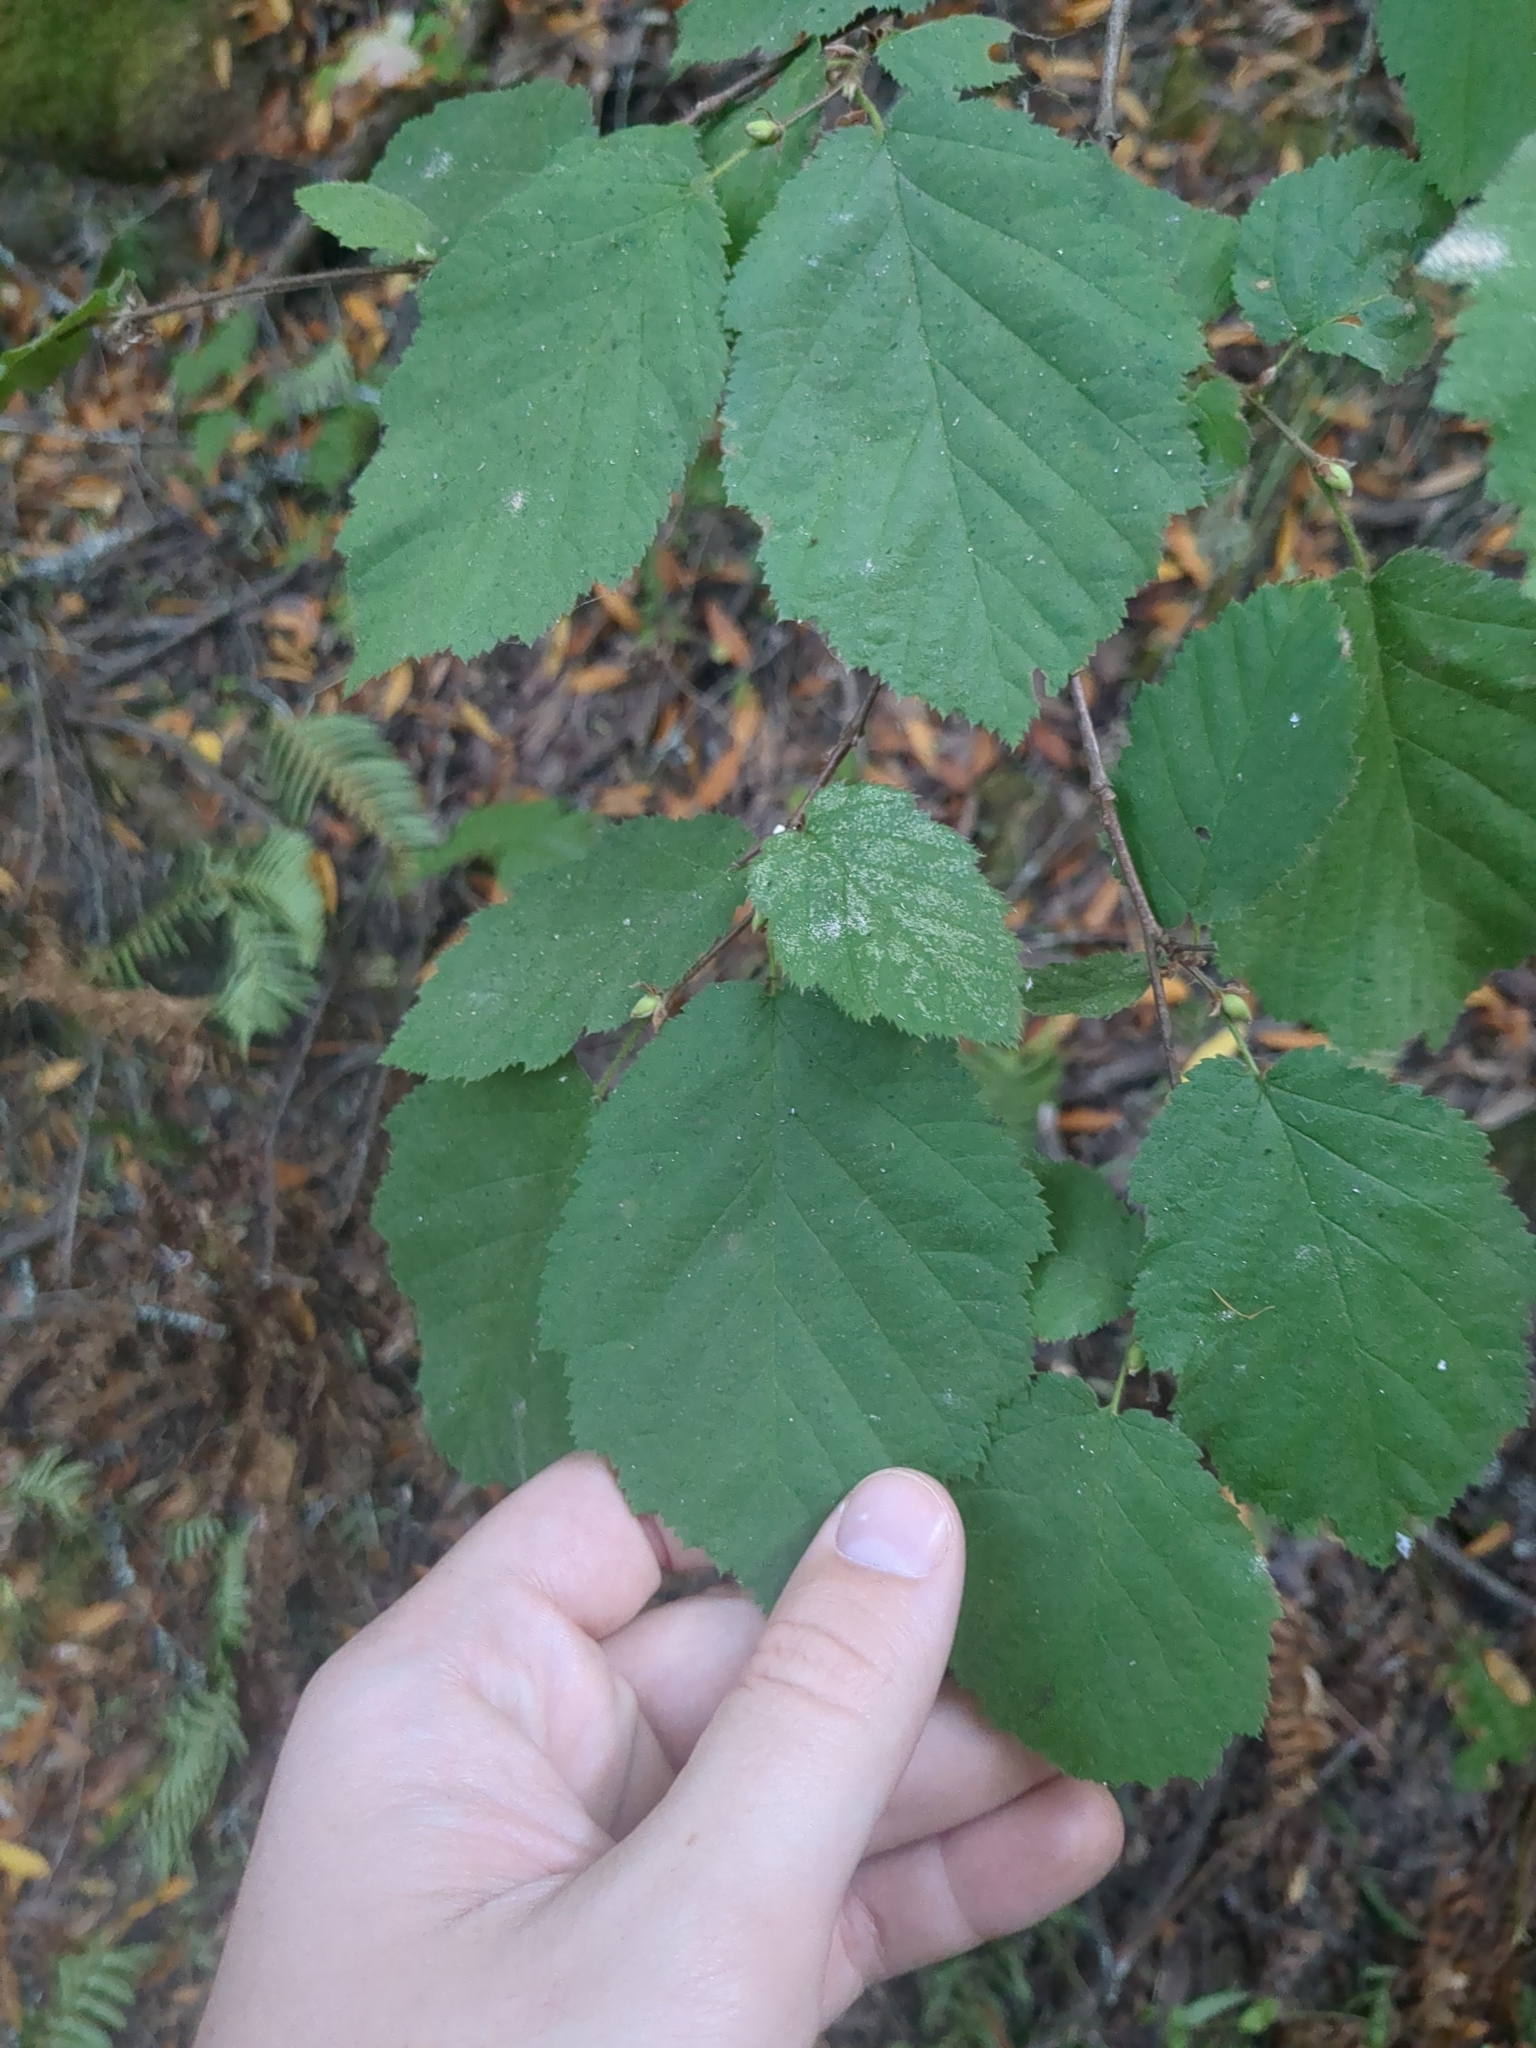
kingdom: Plantae
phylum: Tracheophyta
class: Magnoliopsida
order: Fagales
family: Betulaceae
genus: Corylus
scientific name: Corylus cornuta
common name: Beaked hazel
